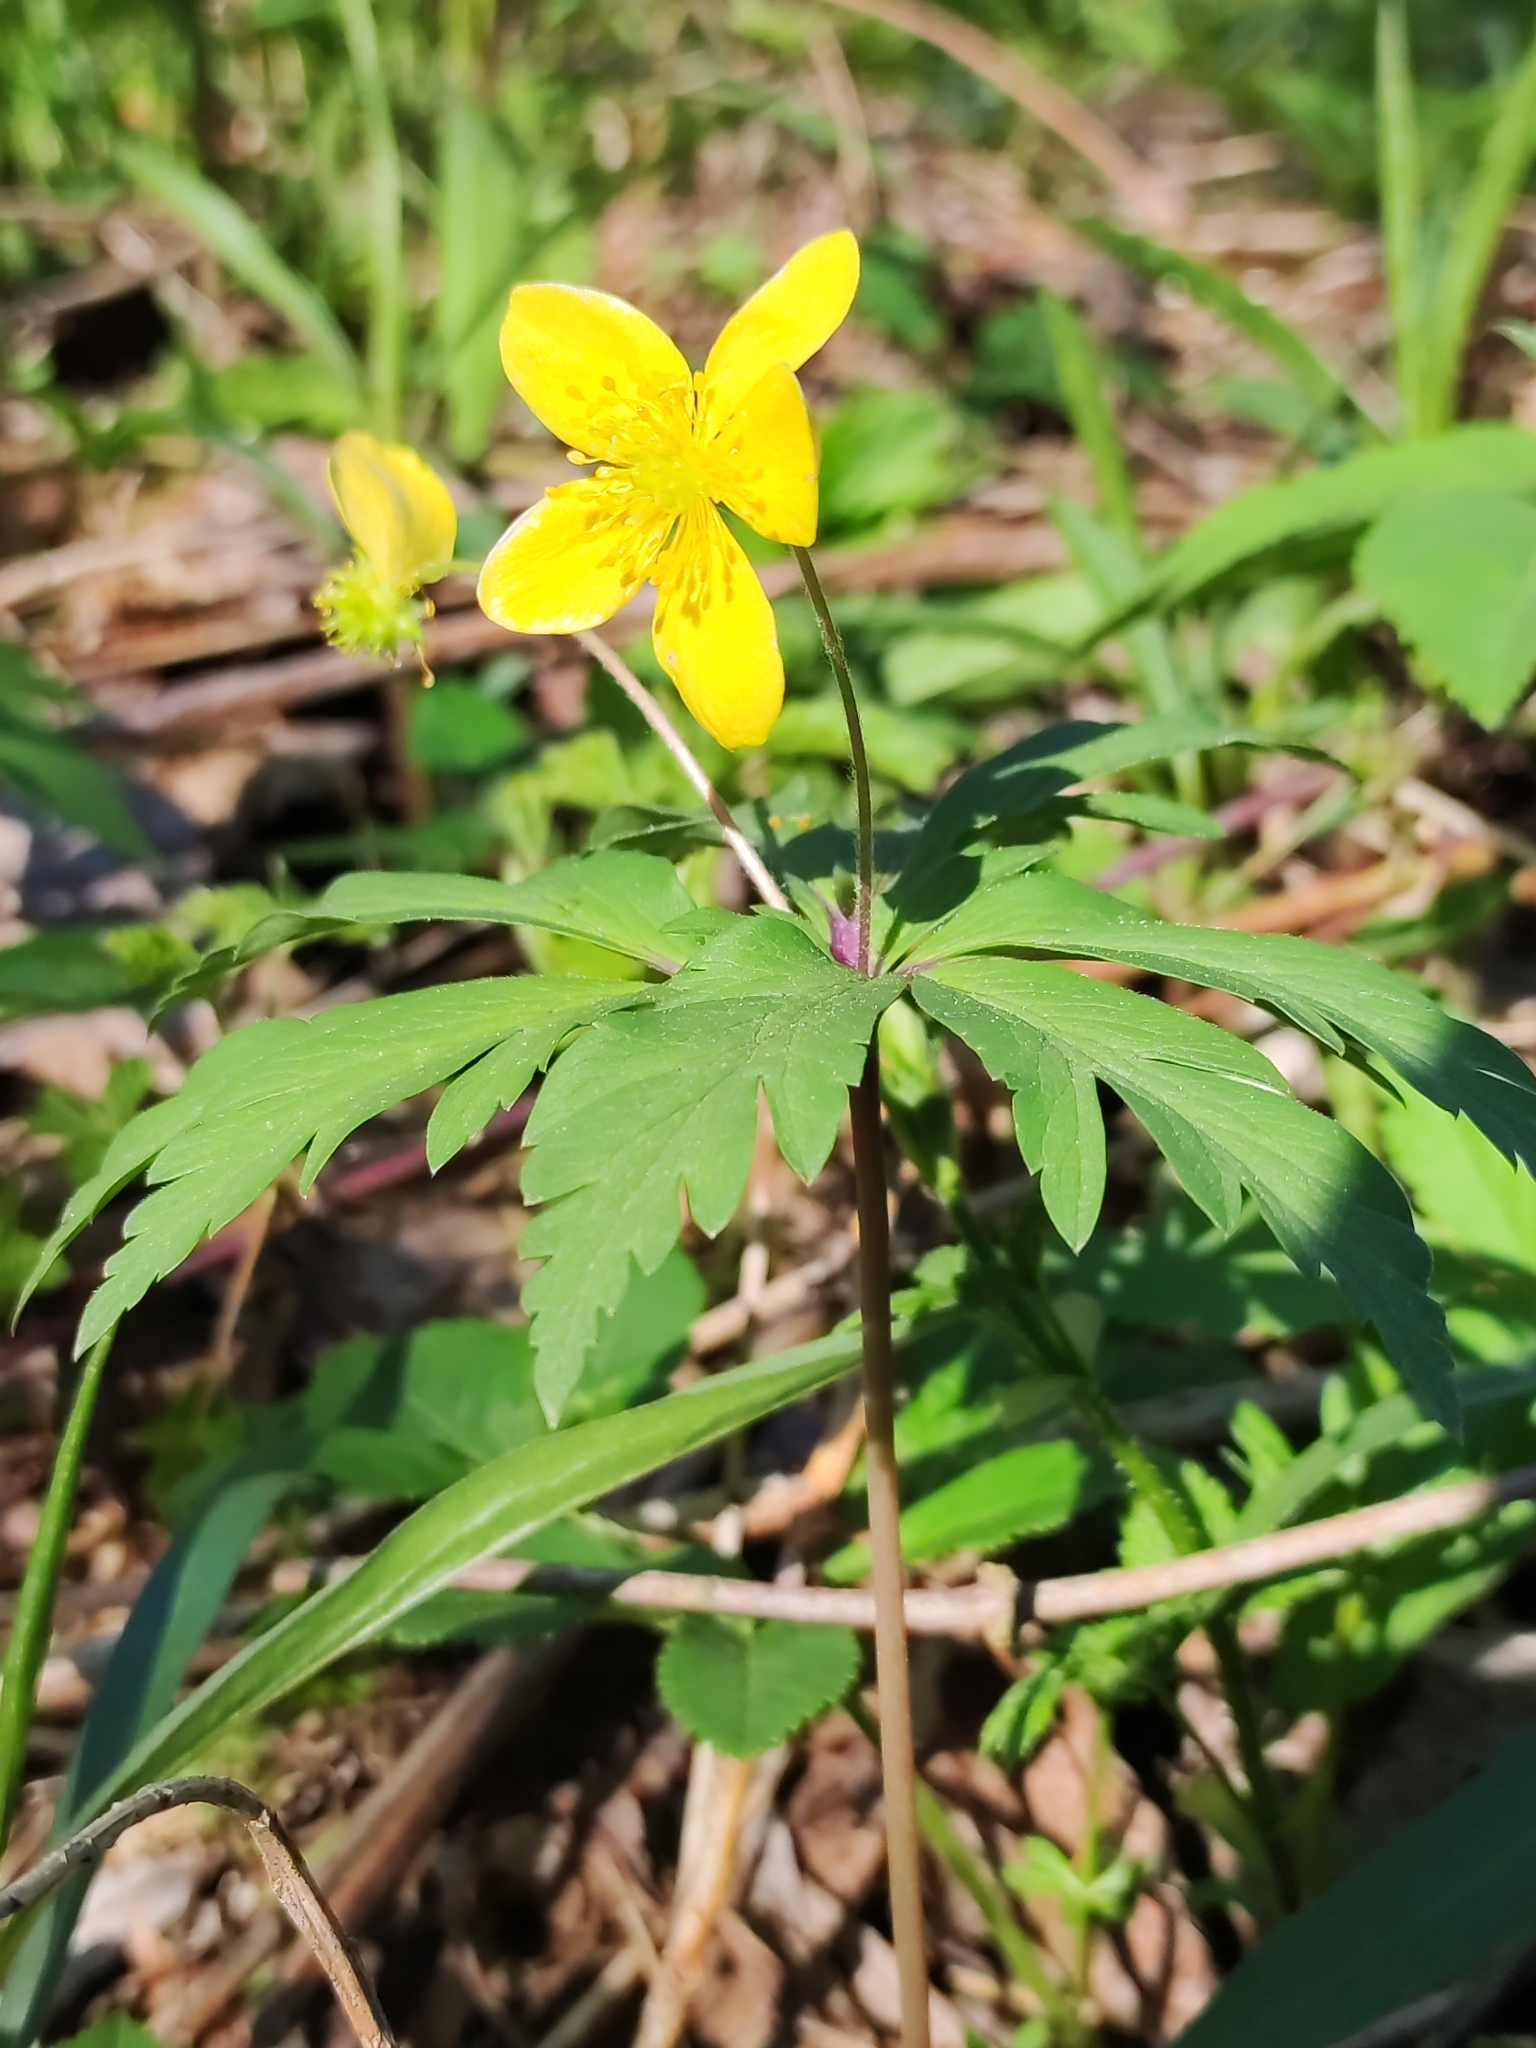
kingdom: Plantae
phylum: Tracheophyta
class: Magnoliopsida
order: Ranunculales
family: Ranunculaceae
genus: Anemone
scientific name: Anemone ranunculoides
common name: Yellow anemone
